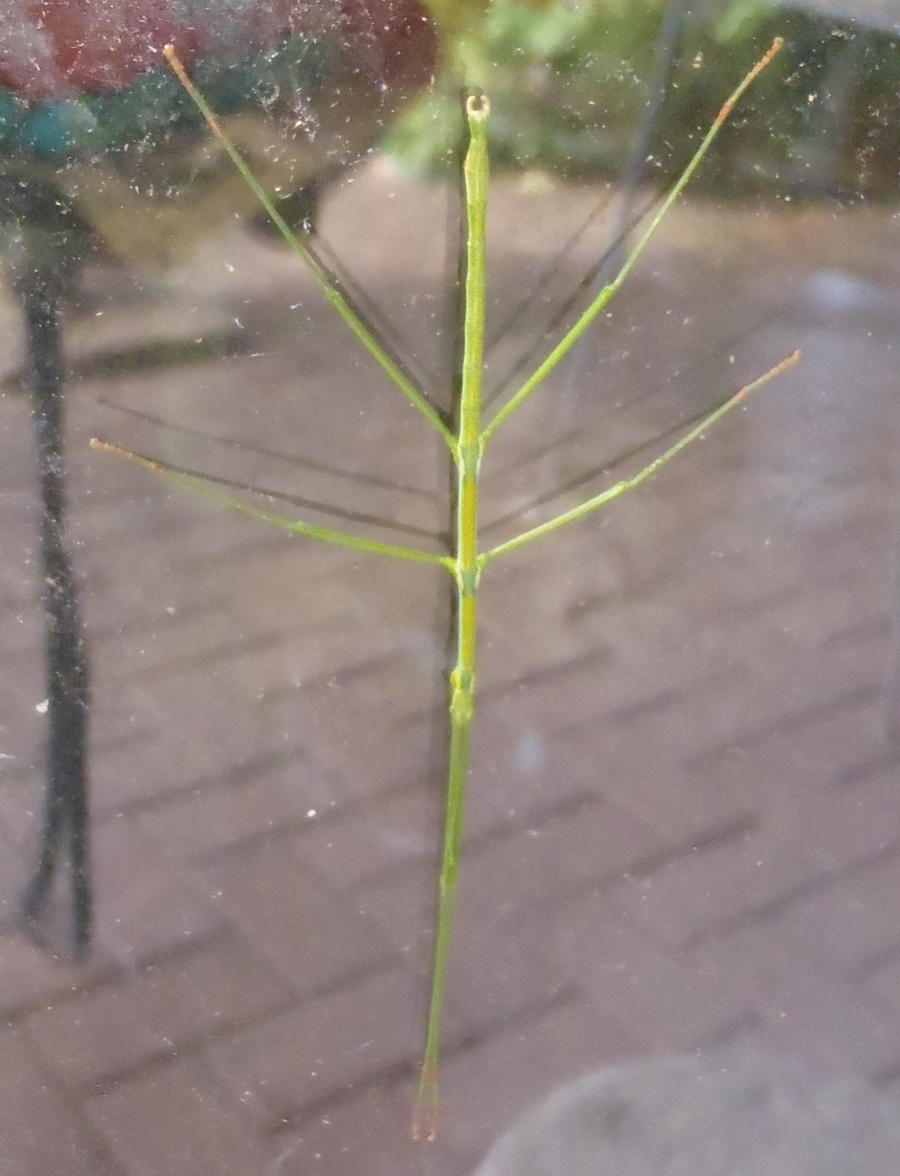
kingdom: Animalia
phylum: Arthropoda
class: Insecta
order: Phasmida
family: Bacillidae
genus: Phalces
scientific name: Phalces brevis
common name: Cape stick insect
